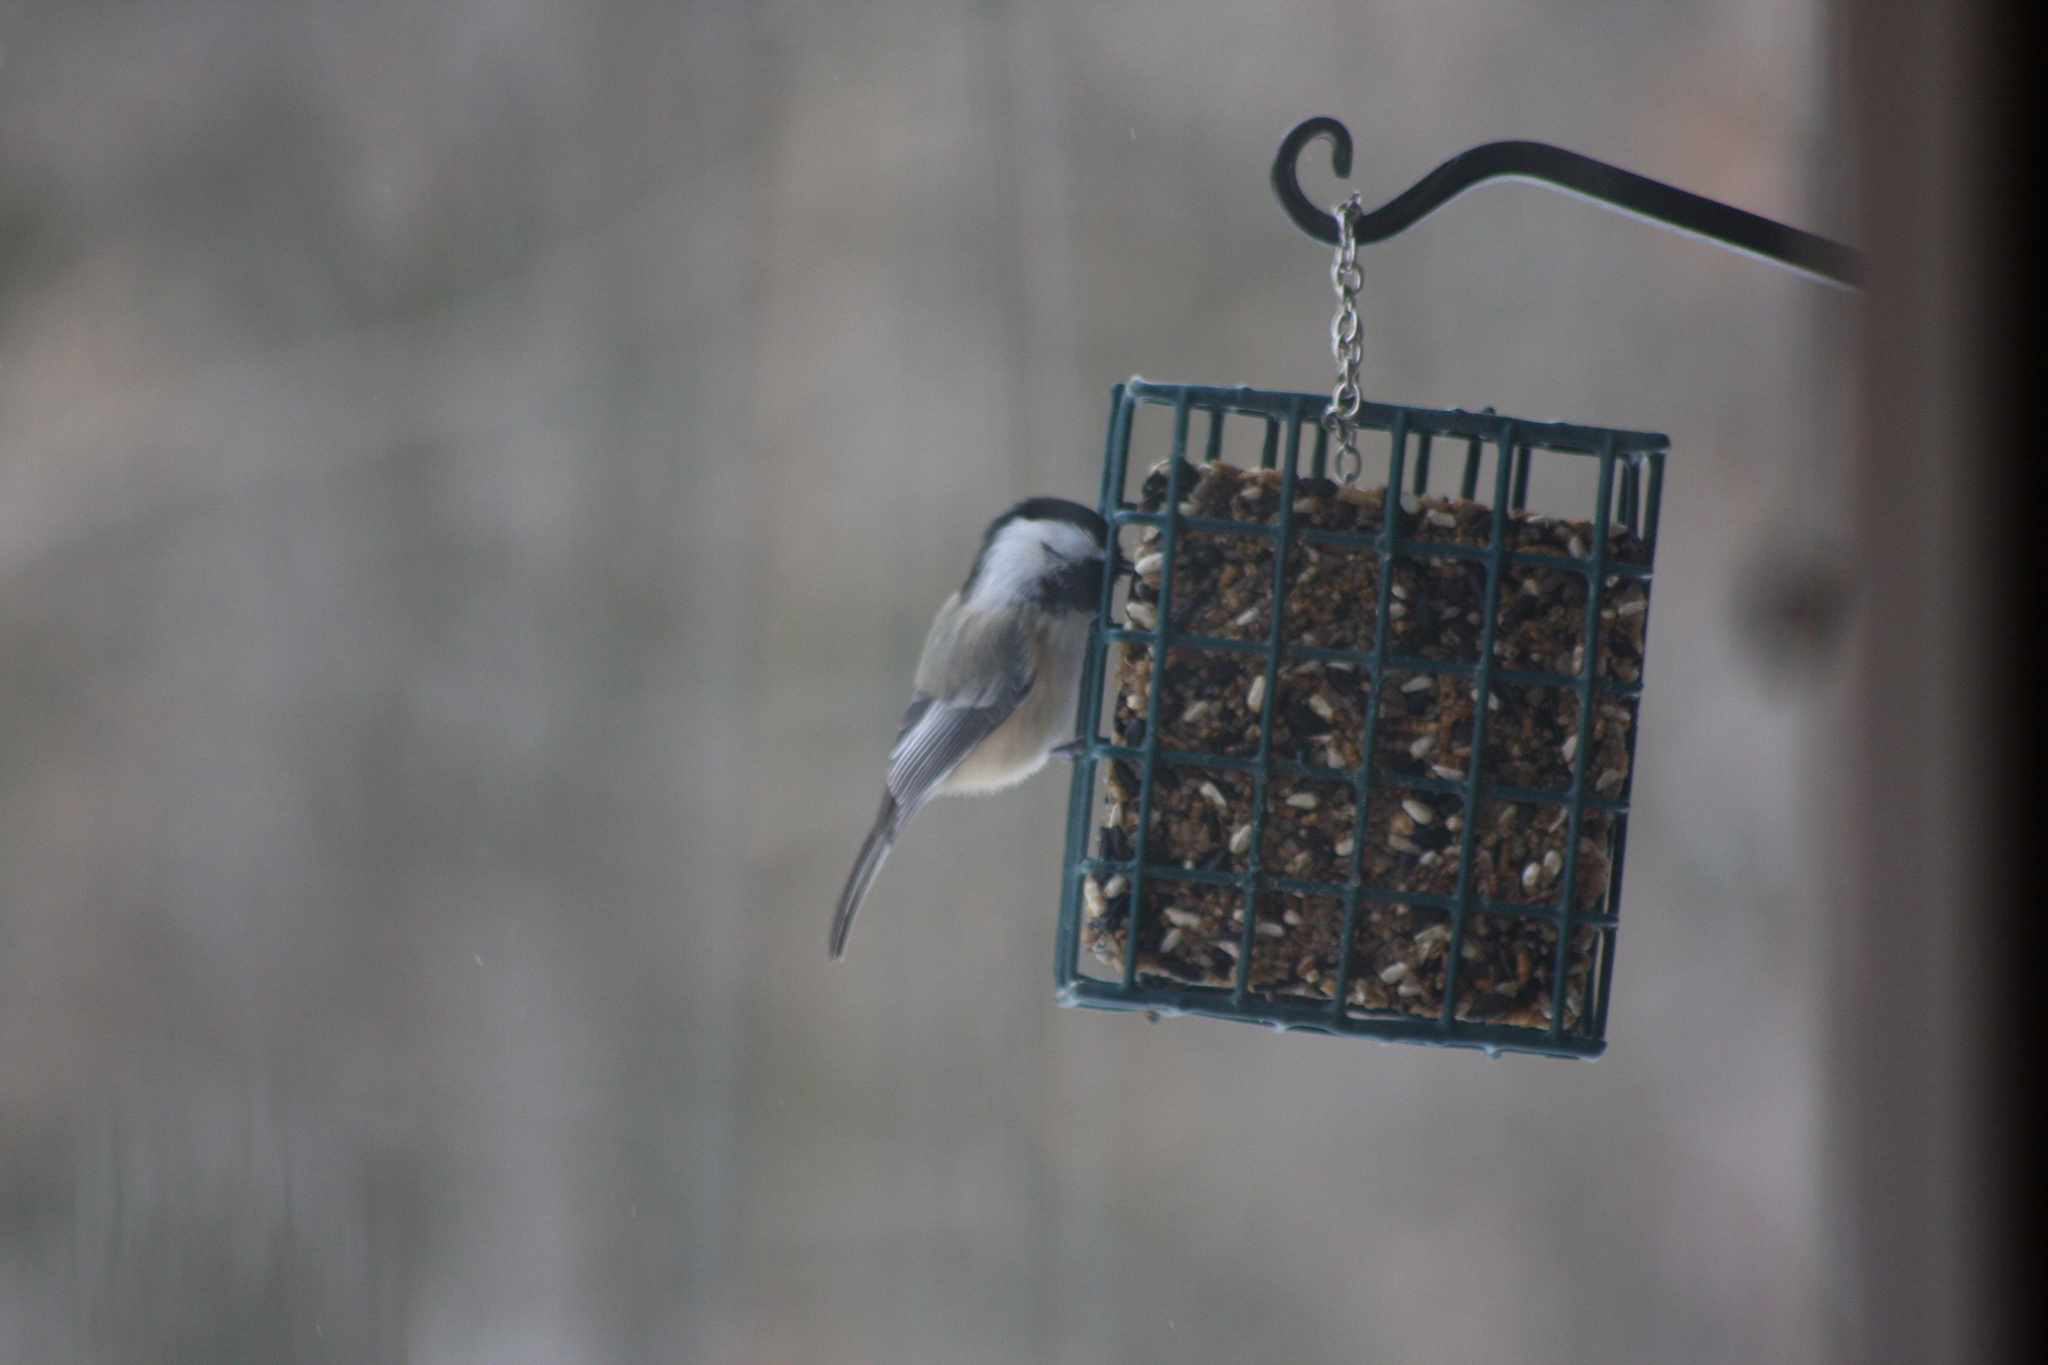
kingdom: Animalia
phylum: Chordata
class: Aves
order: Passeriformes
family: Paridae
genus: Poecile
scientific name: Poecile atricapillus
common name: Black-capped chickadee
